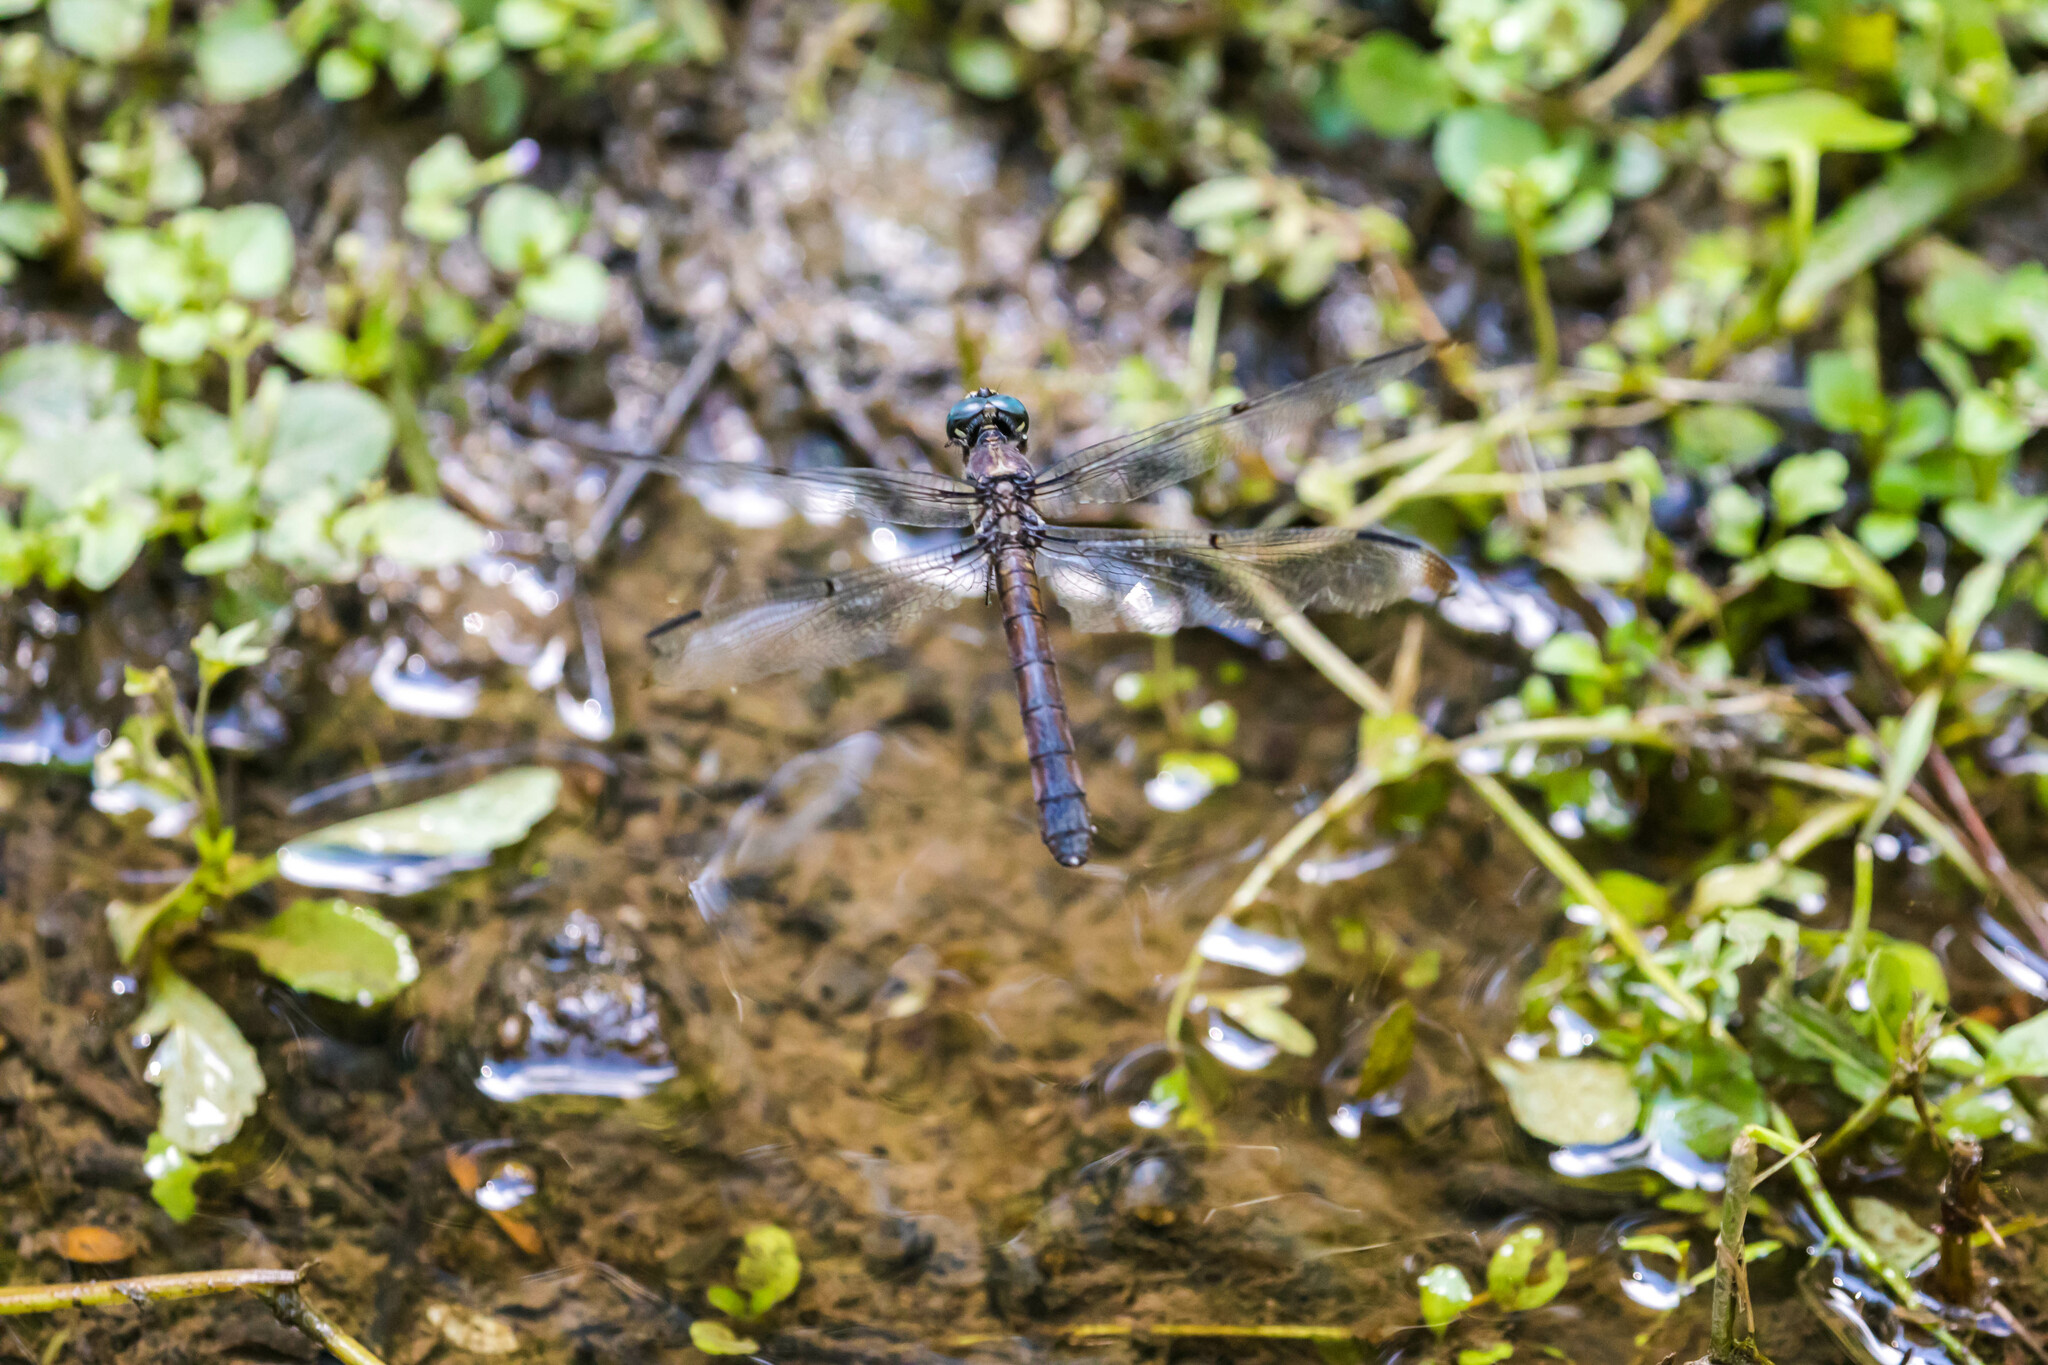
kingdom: Animalia
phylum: Arthropoda
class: Insecta
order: Odonata
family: Libellulidae
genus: Libellula
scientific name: Libellula vibrans
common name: Great blue skimmer
